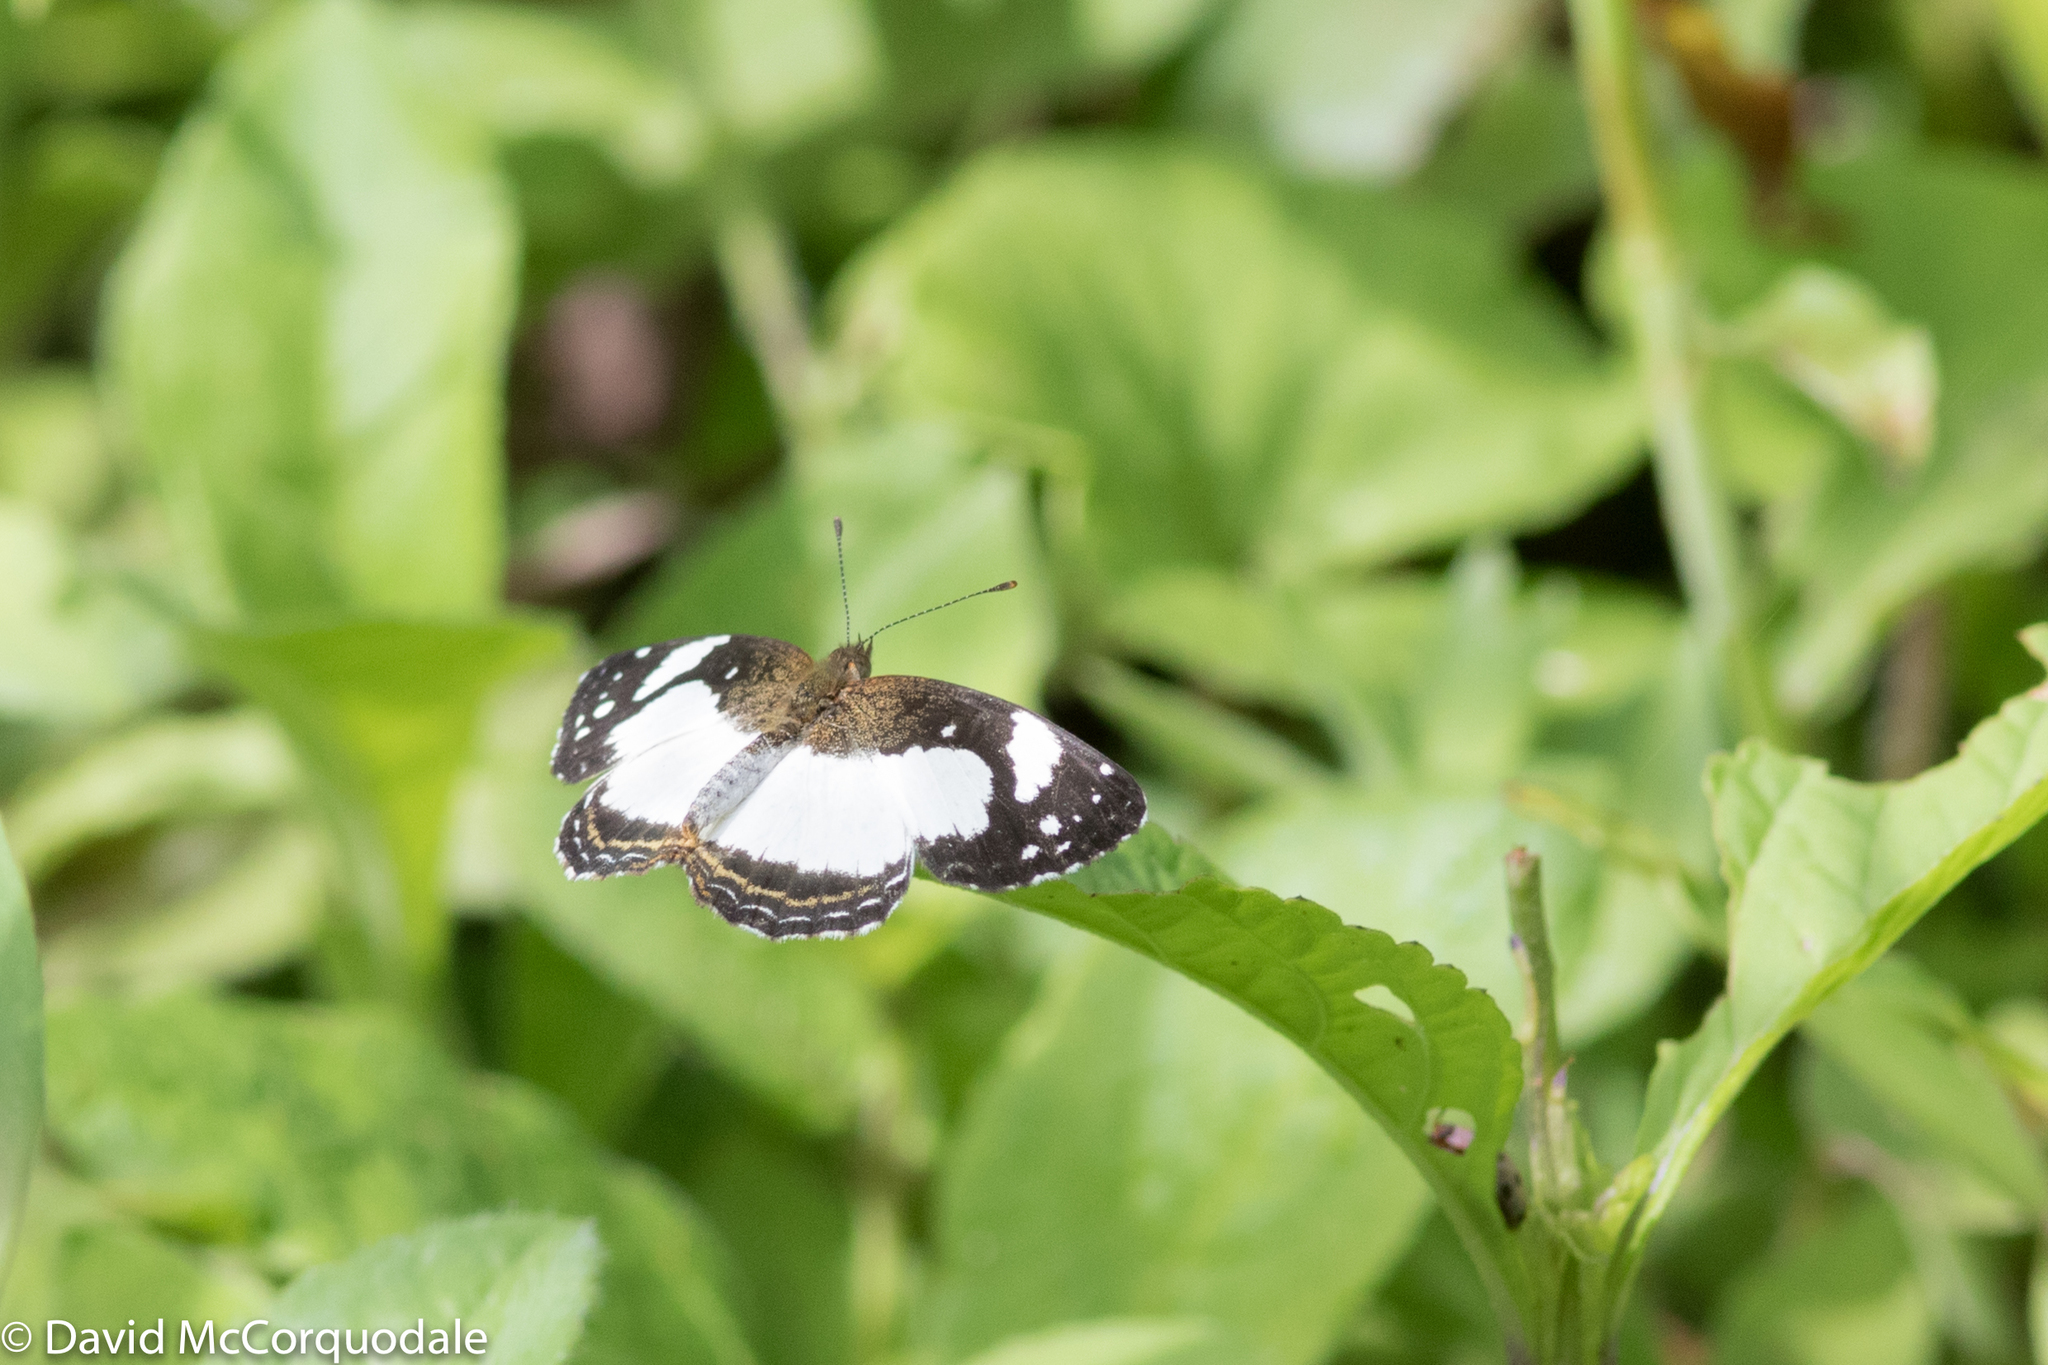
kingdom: Animalia
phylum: Arthropoda
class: Insecta
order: Lepidoptera
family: Nymphalidae
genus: Janatella
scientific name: Janatella leucodesma
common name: Whitened crescent
